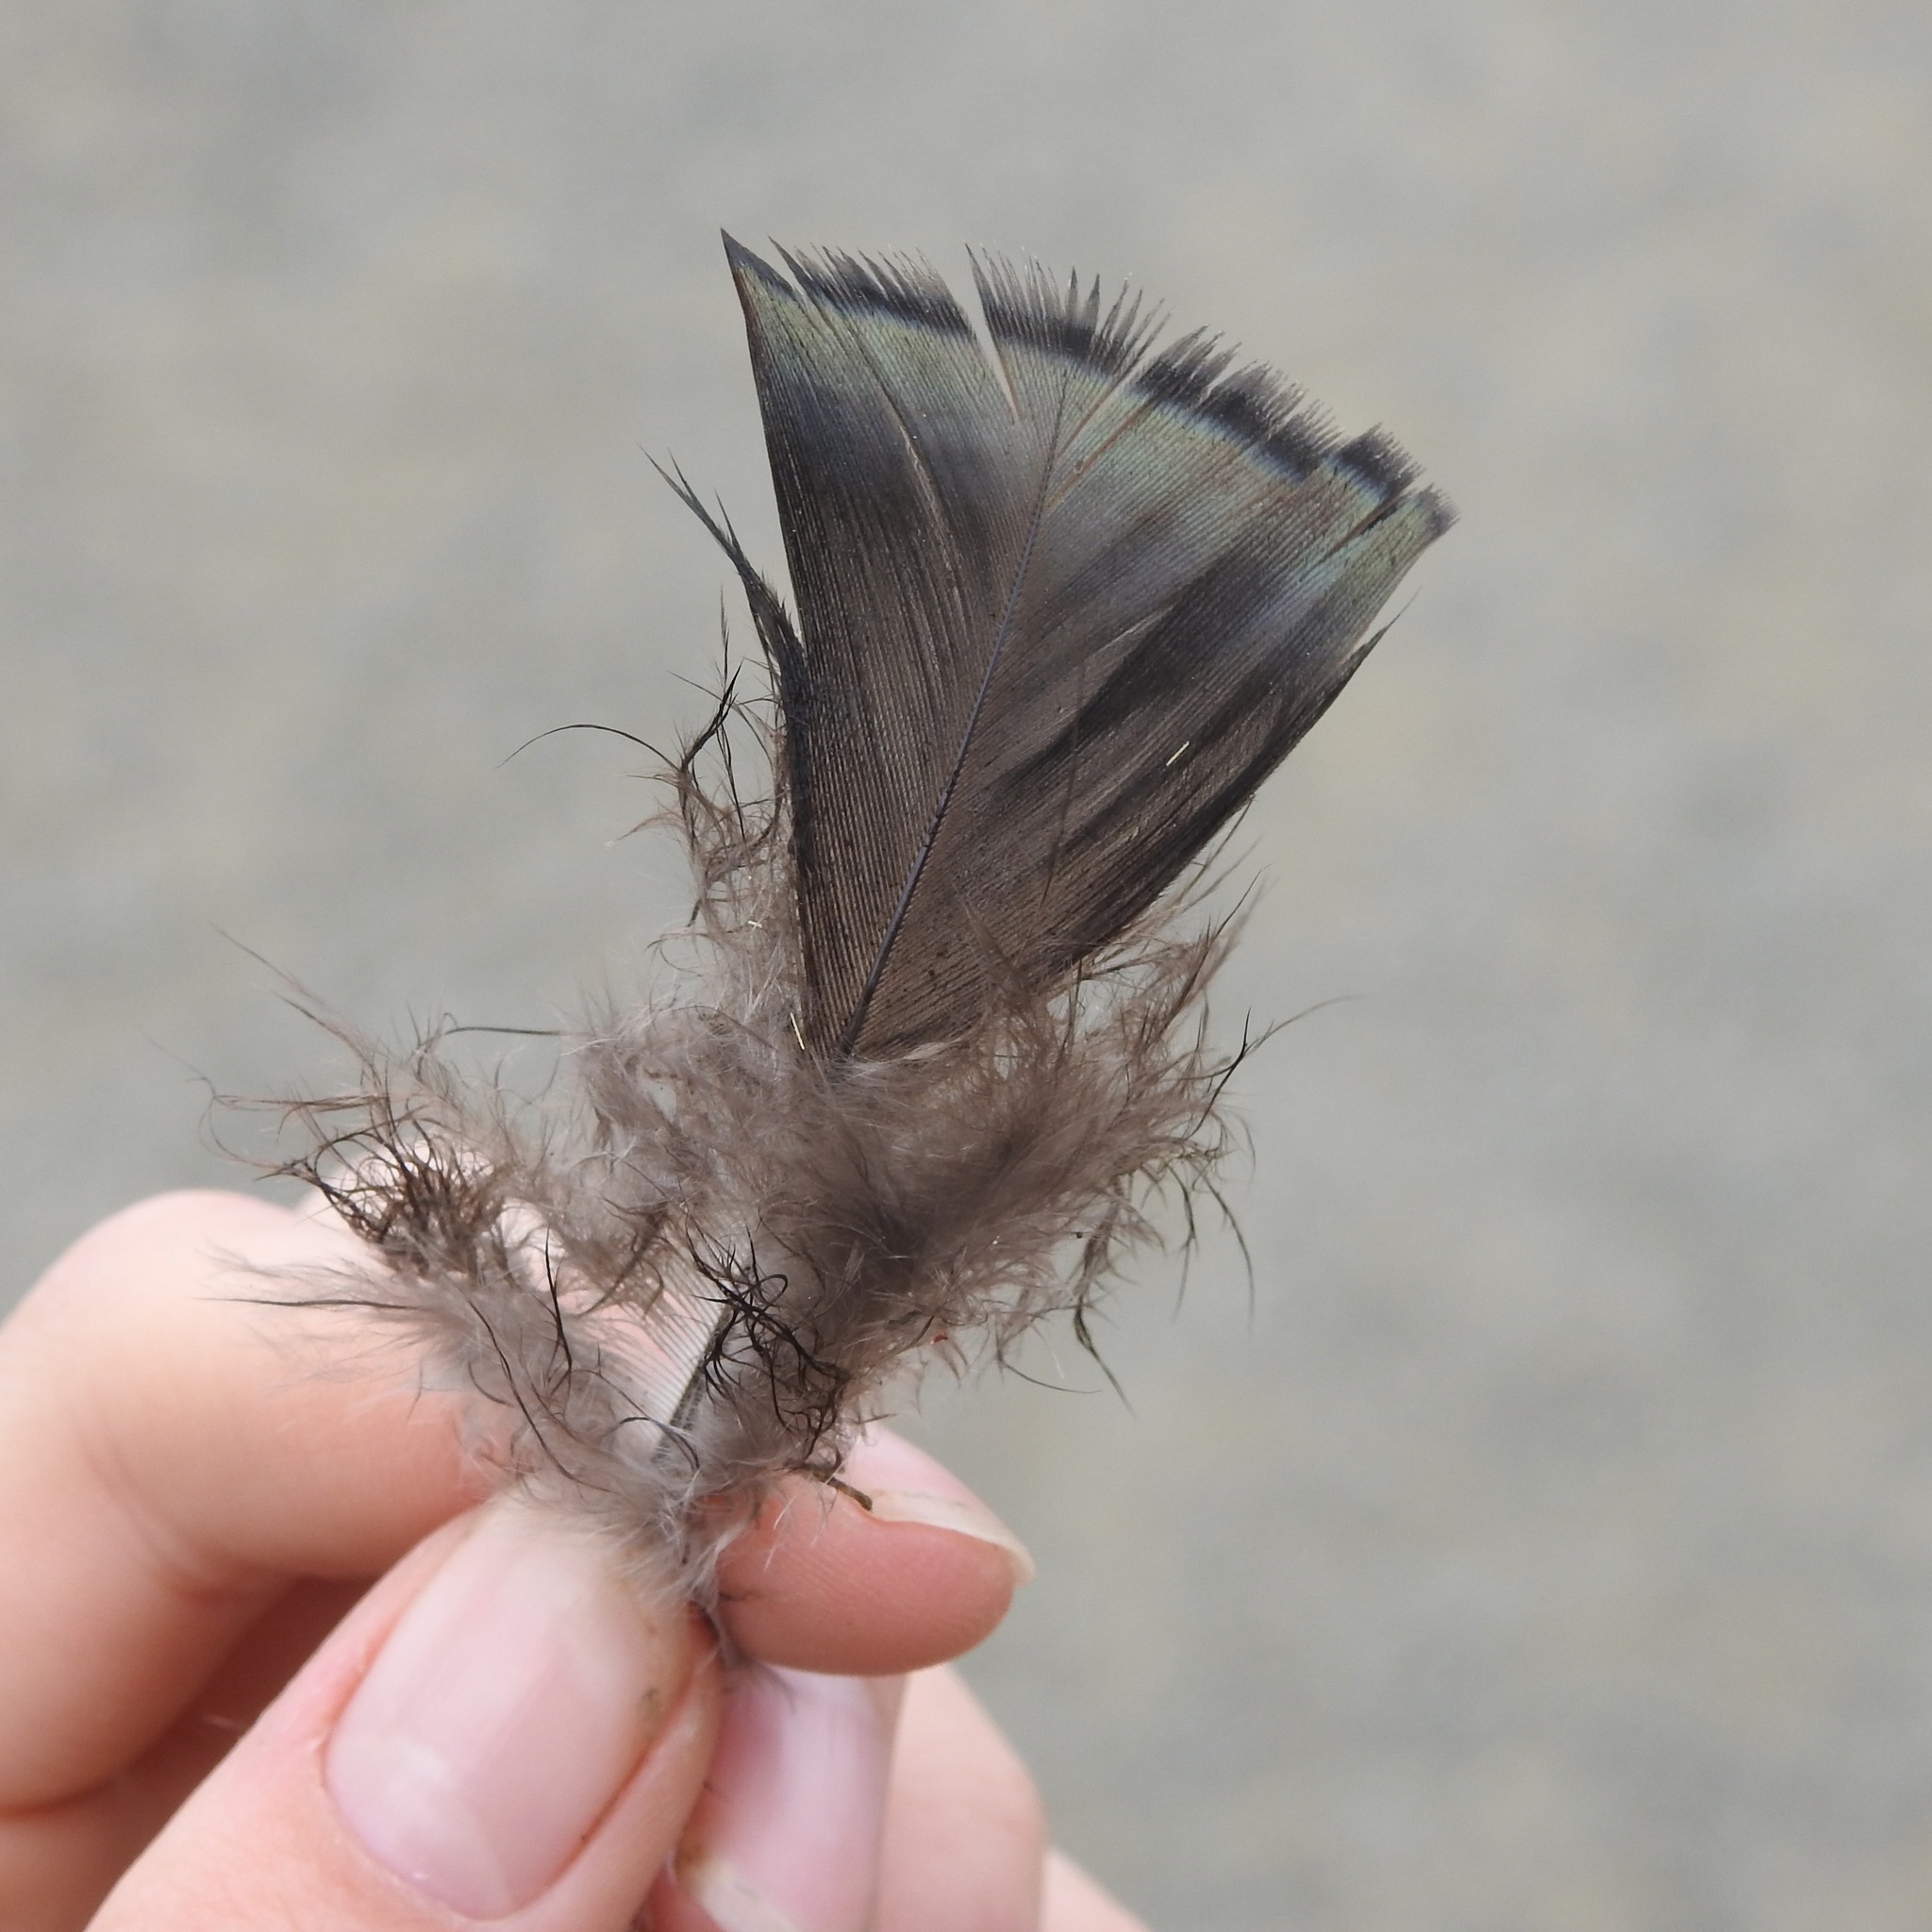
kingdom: Animalia
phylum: Chordata
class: Aves
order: Galliformes
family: Phasianidae
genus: Meleagris
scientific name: Meleagris gallopavo
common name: Wild turkey
